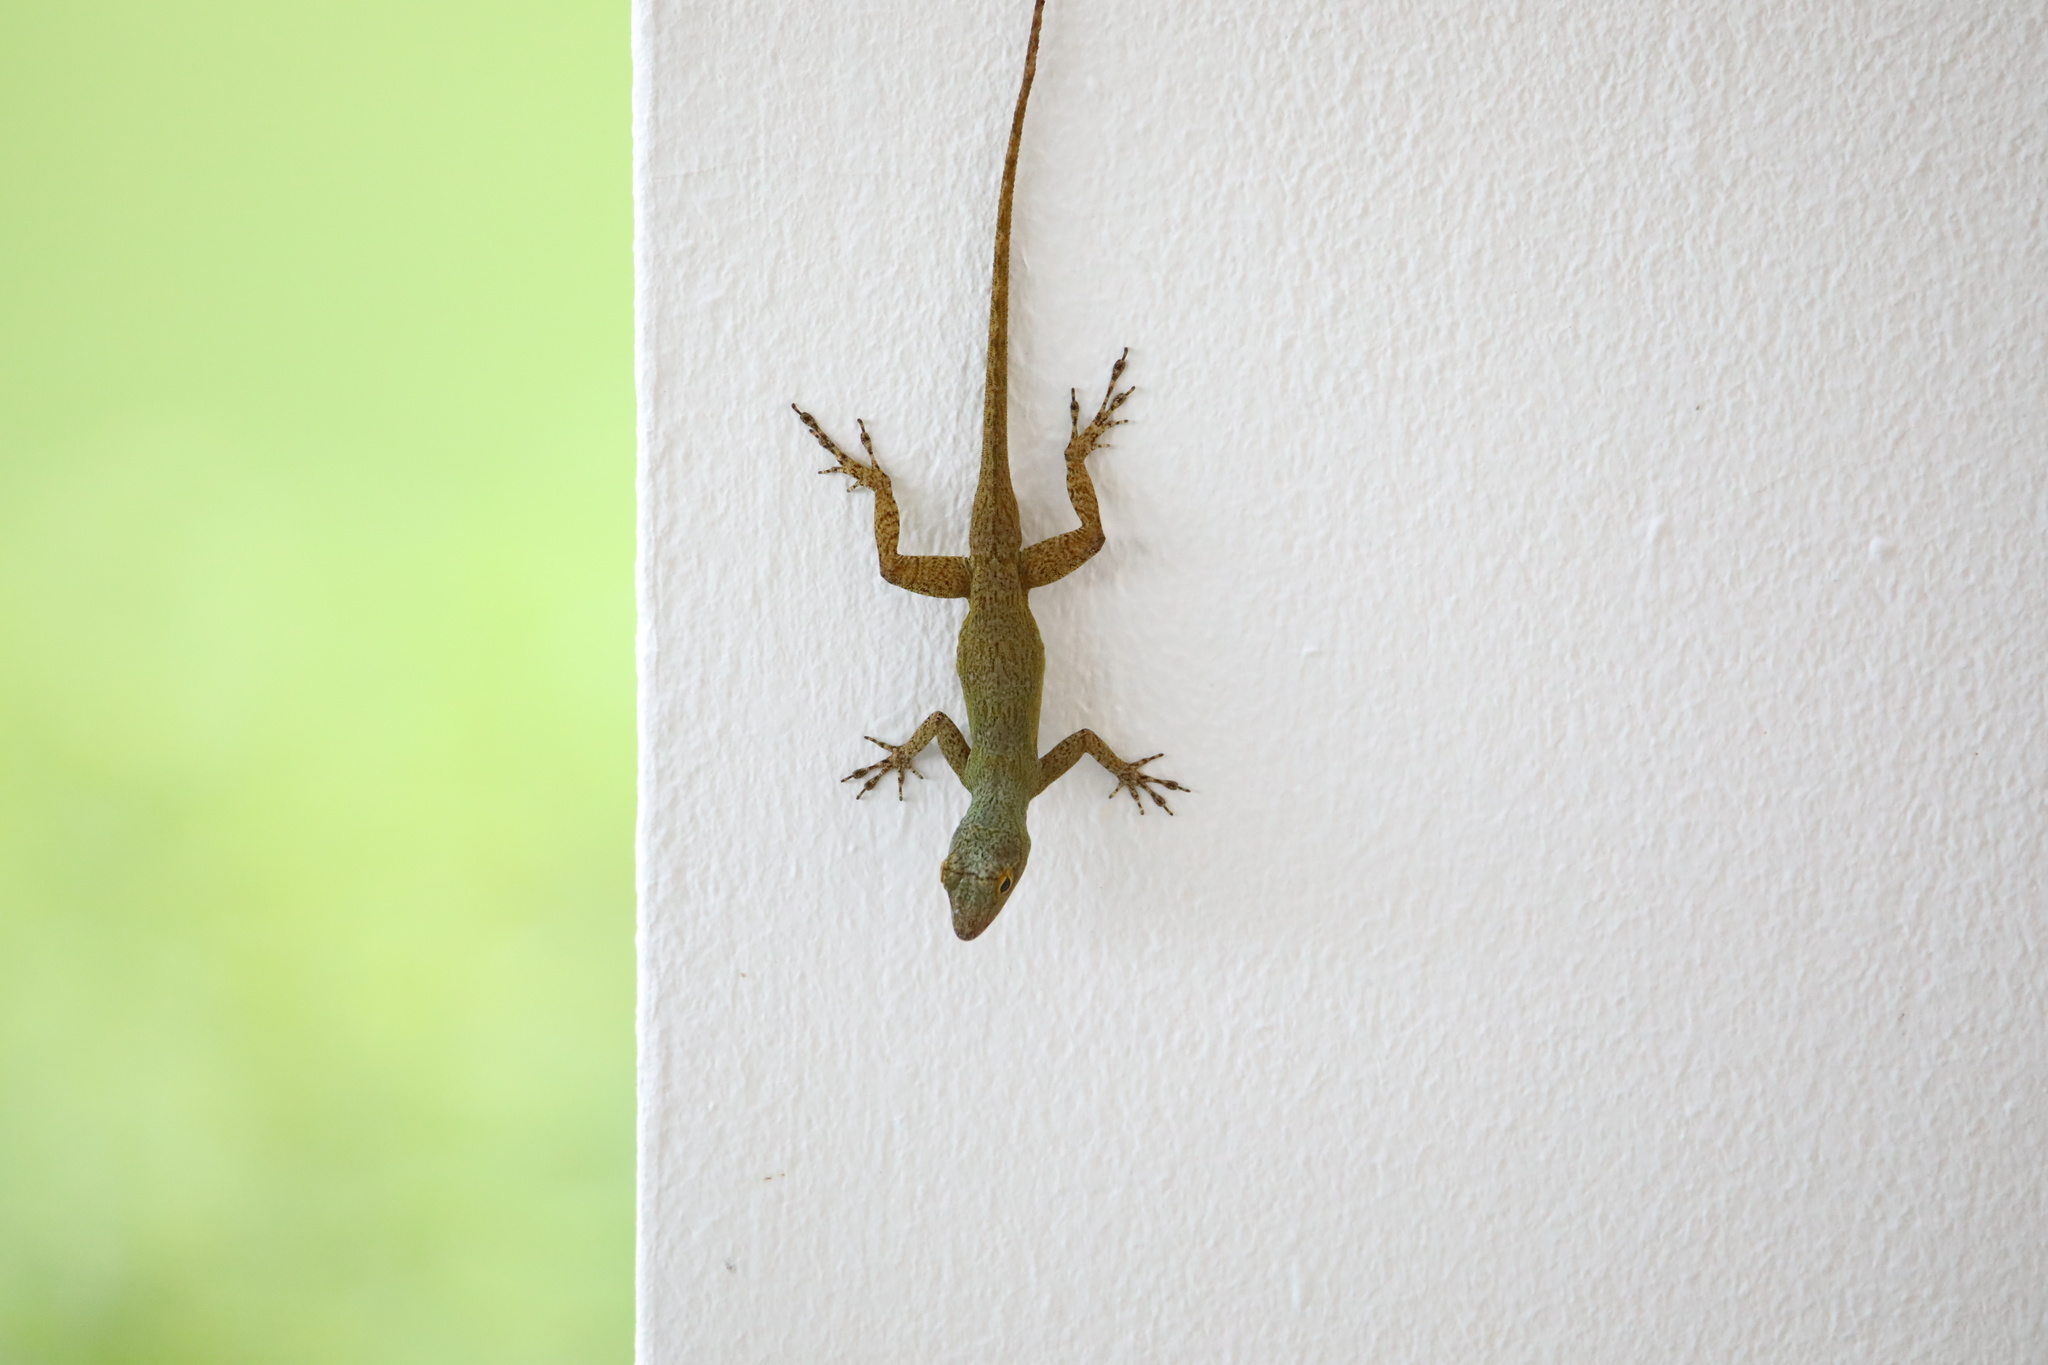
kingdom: Animalia
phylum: Chordata
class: Squamata
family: Dactyloidae
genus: Anolis
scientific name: Anolis distichus
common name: Bark anole
